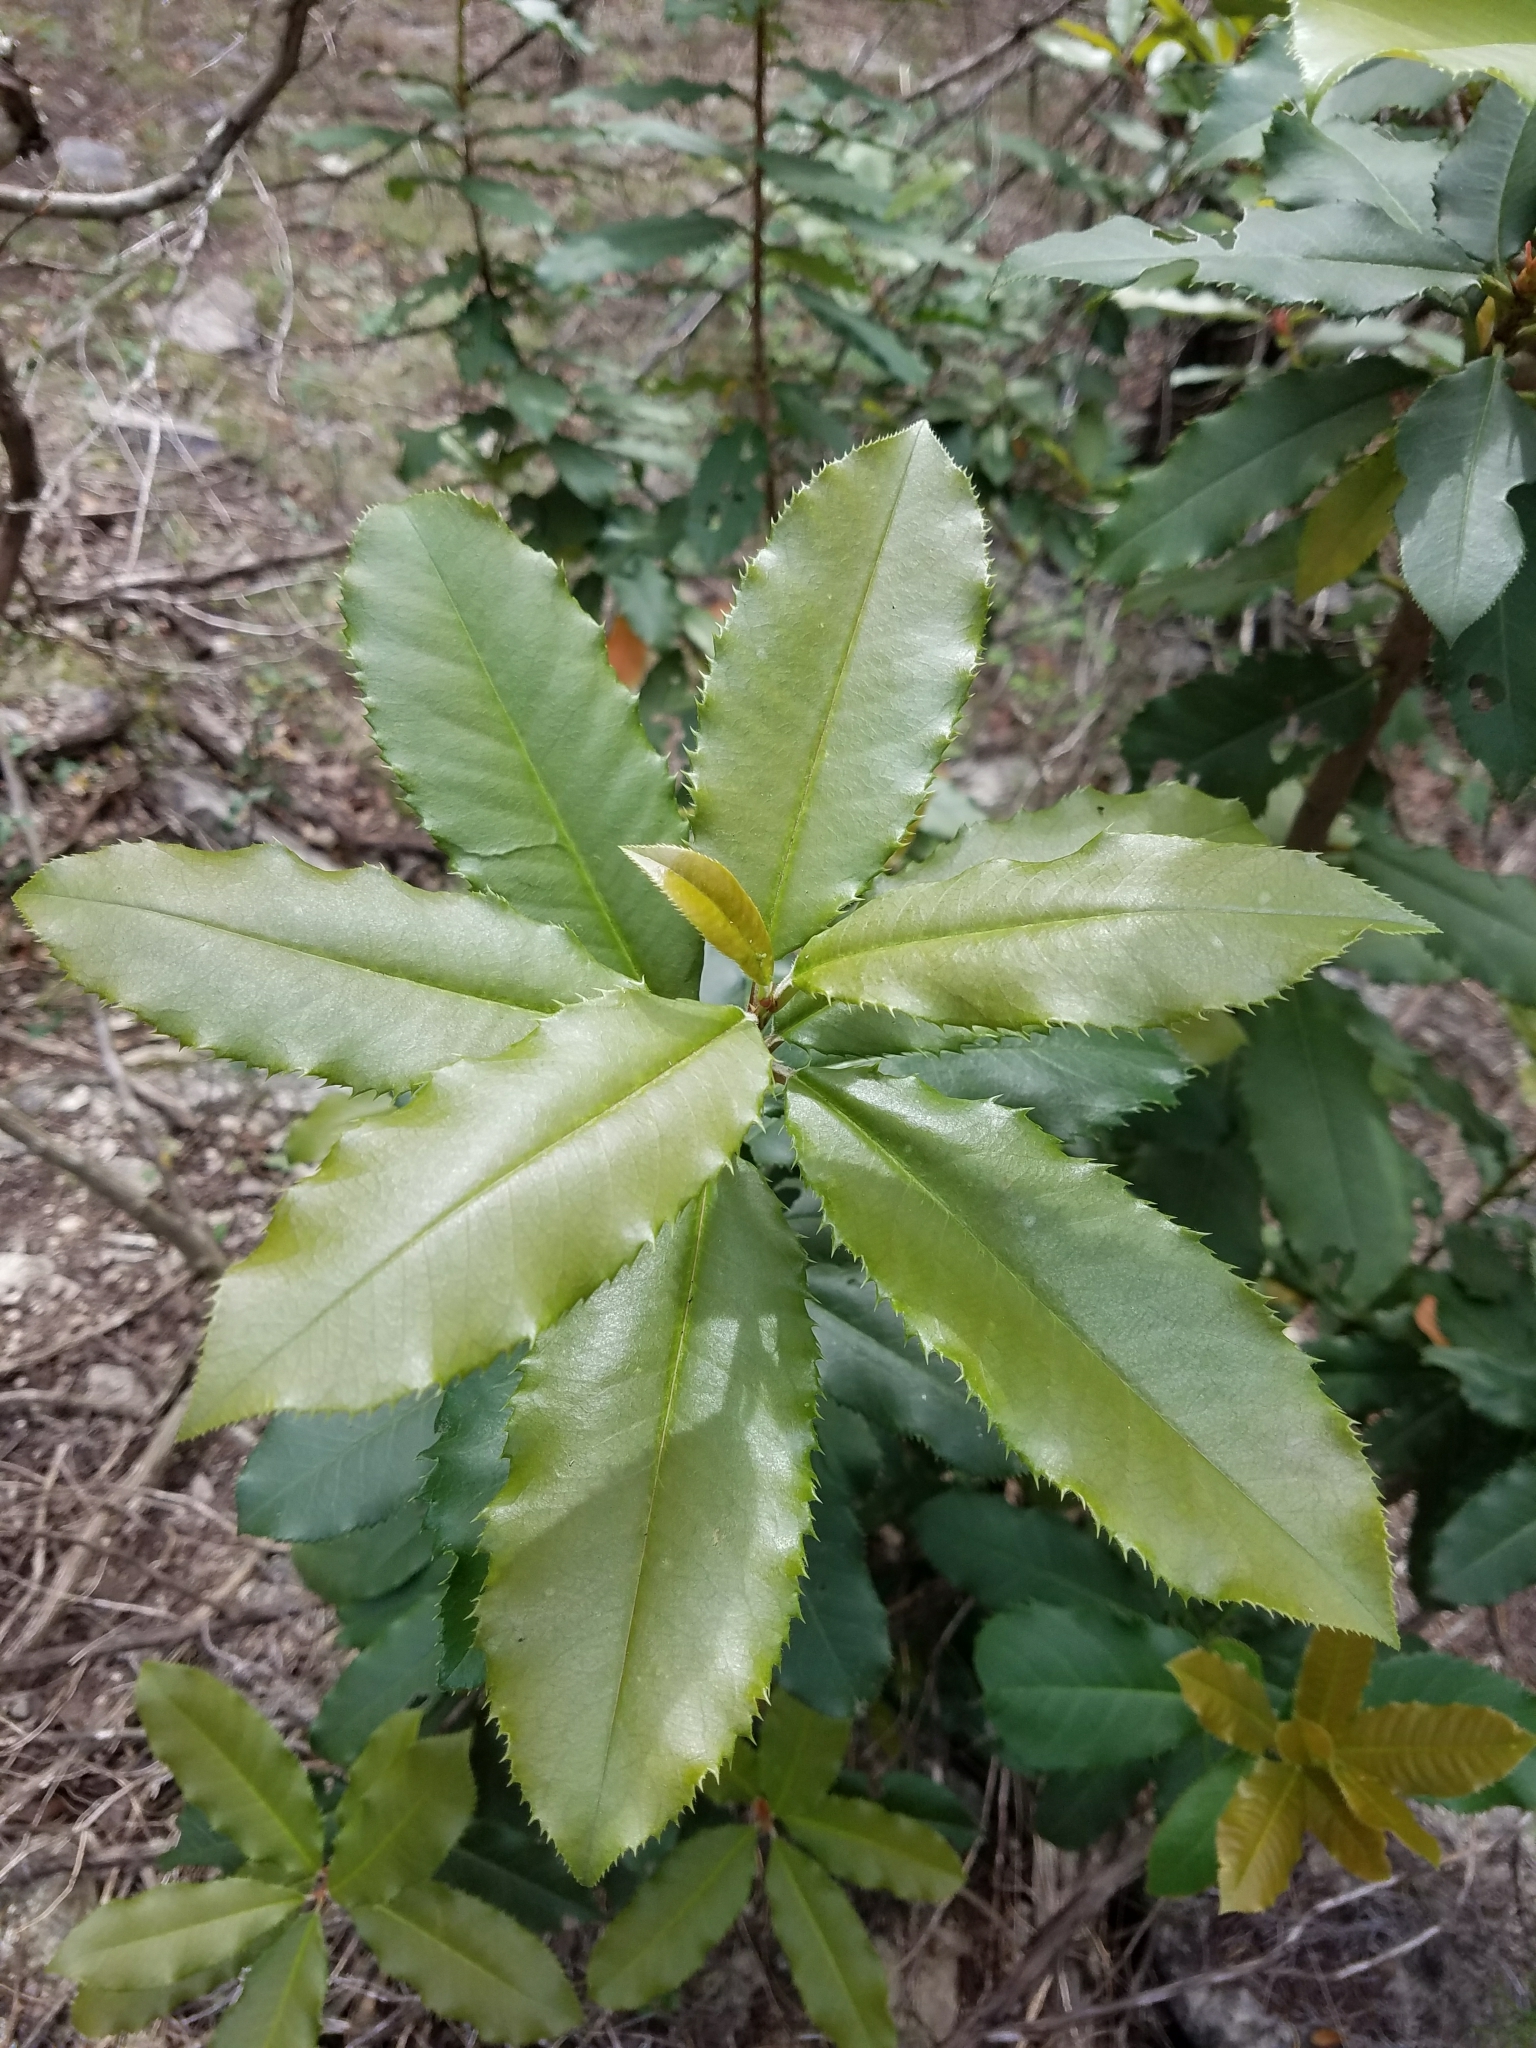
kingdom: Plantae
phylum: Tracheophyta
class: Magnoliopsida
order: Rosales
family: Rosaceae
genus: Photinia
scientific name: Photinia serratifolia
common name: Taiwanese photinia
